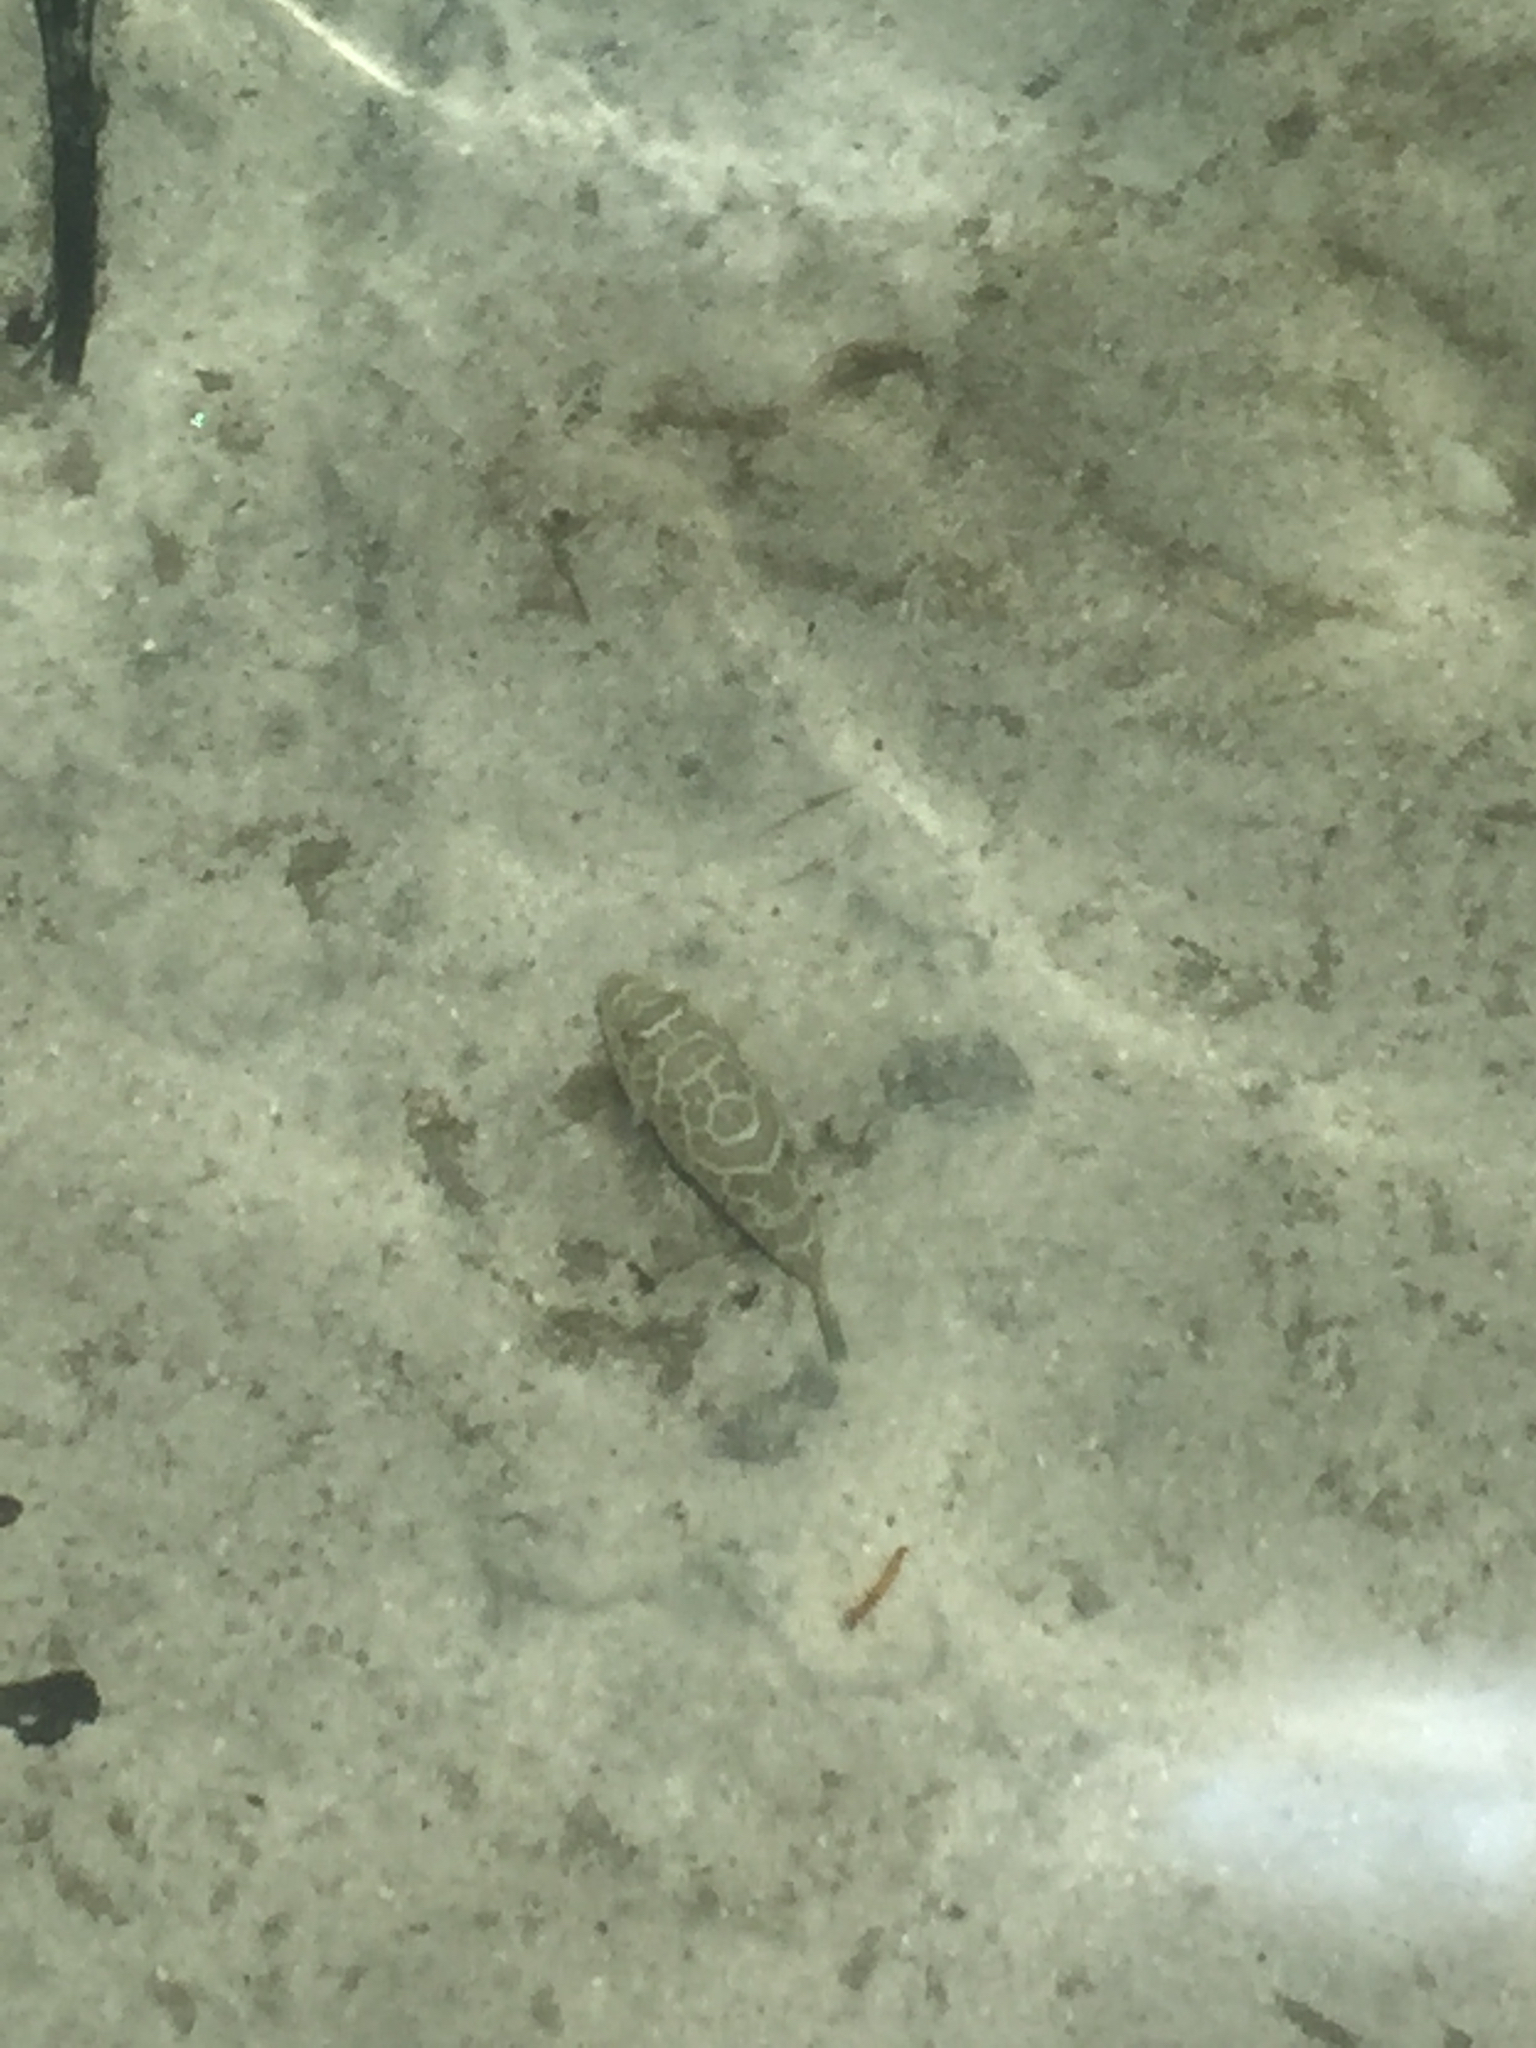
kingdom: Animalia
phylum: Chordata
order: Tetraodontiformes
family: Tetraodontidae
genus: Sphoeroides
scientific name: Sphoeroides testudineus
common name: Checkered puffer
